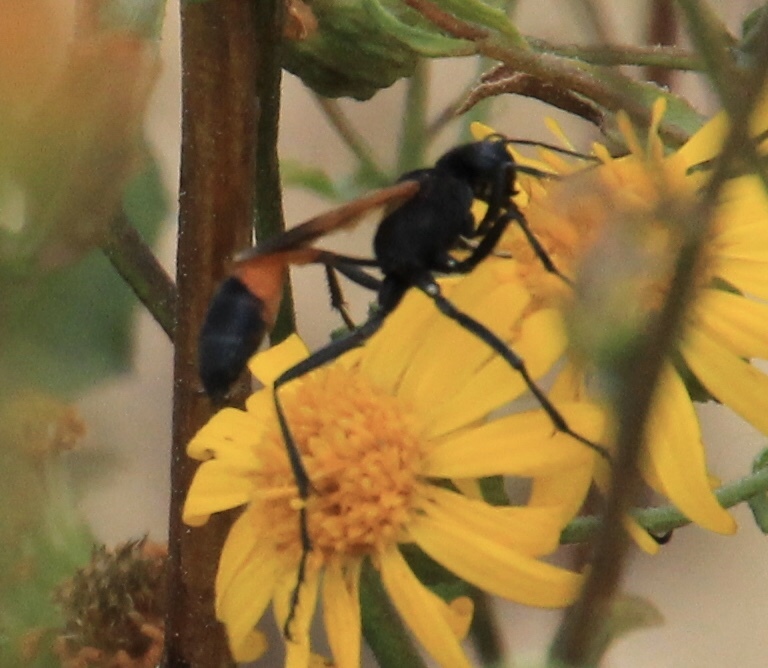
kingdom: Animalia
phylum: Arthropoda
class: Insecta
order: Hymenoptera
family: Sphecidae
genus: Ammophila
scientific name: Ammophila pictipennis
